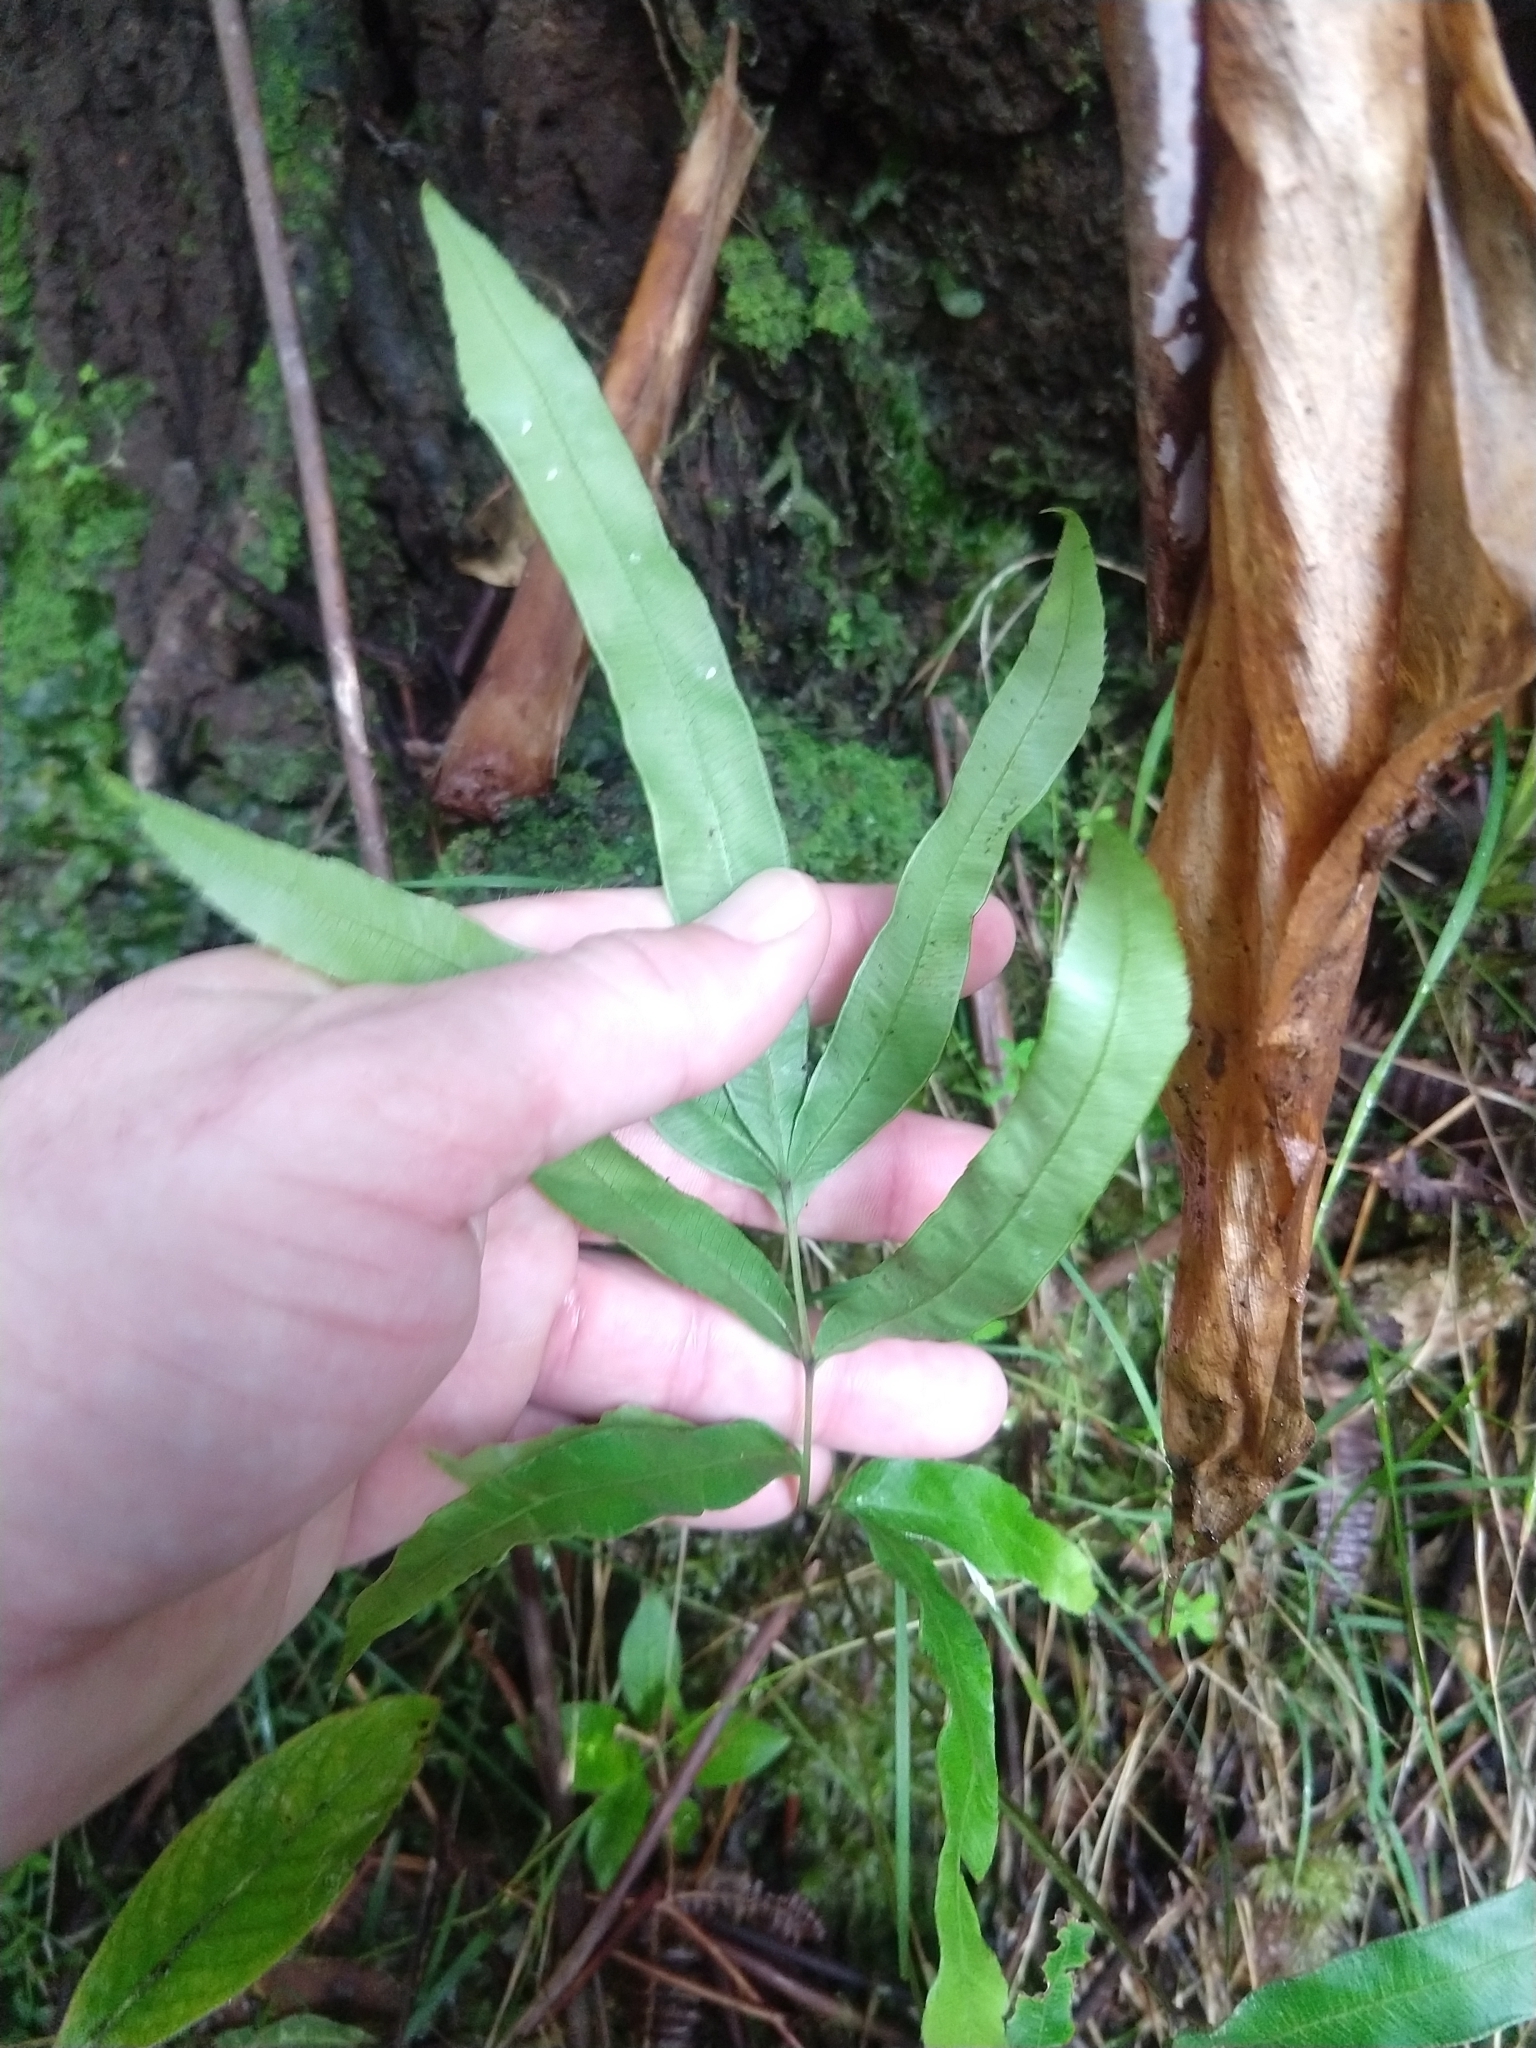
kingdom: Plantae
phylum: Tracheophyta
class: Polypodiopsida
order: Polypodiales
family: Pteridaceae
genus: Pteris
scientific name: Pteris cretica
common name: Ribbon fern
